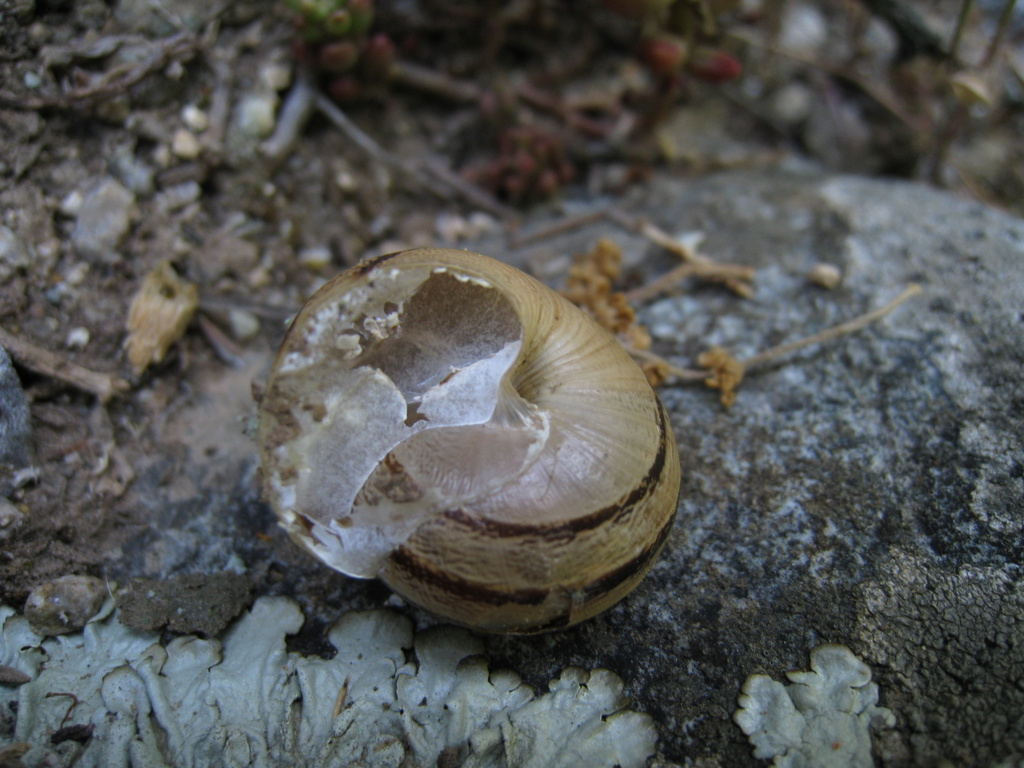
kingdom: Animalia
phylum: Mollusca
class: Gastropoda
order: Stylommatophora
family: Helicidae
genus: Eobania
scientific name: Eobania vermiculata
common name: Chocolateband snail
